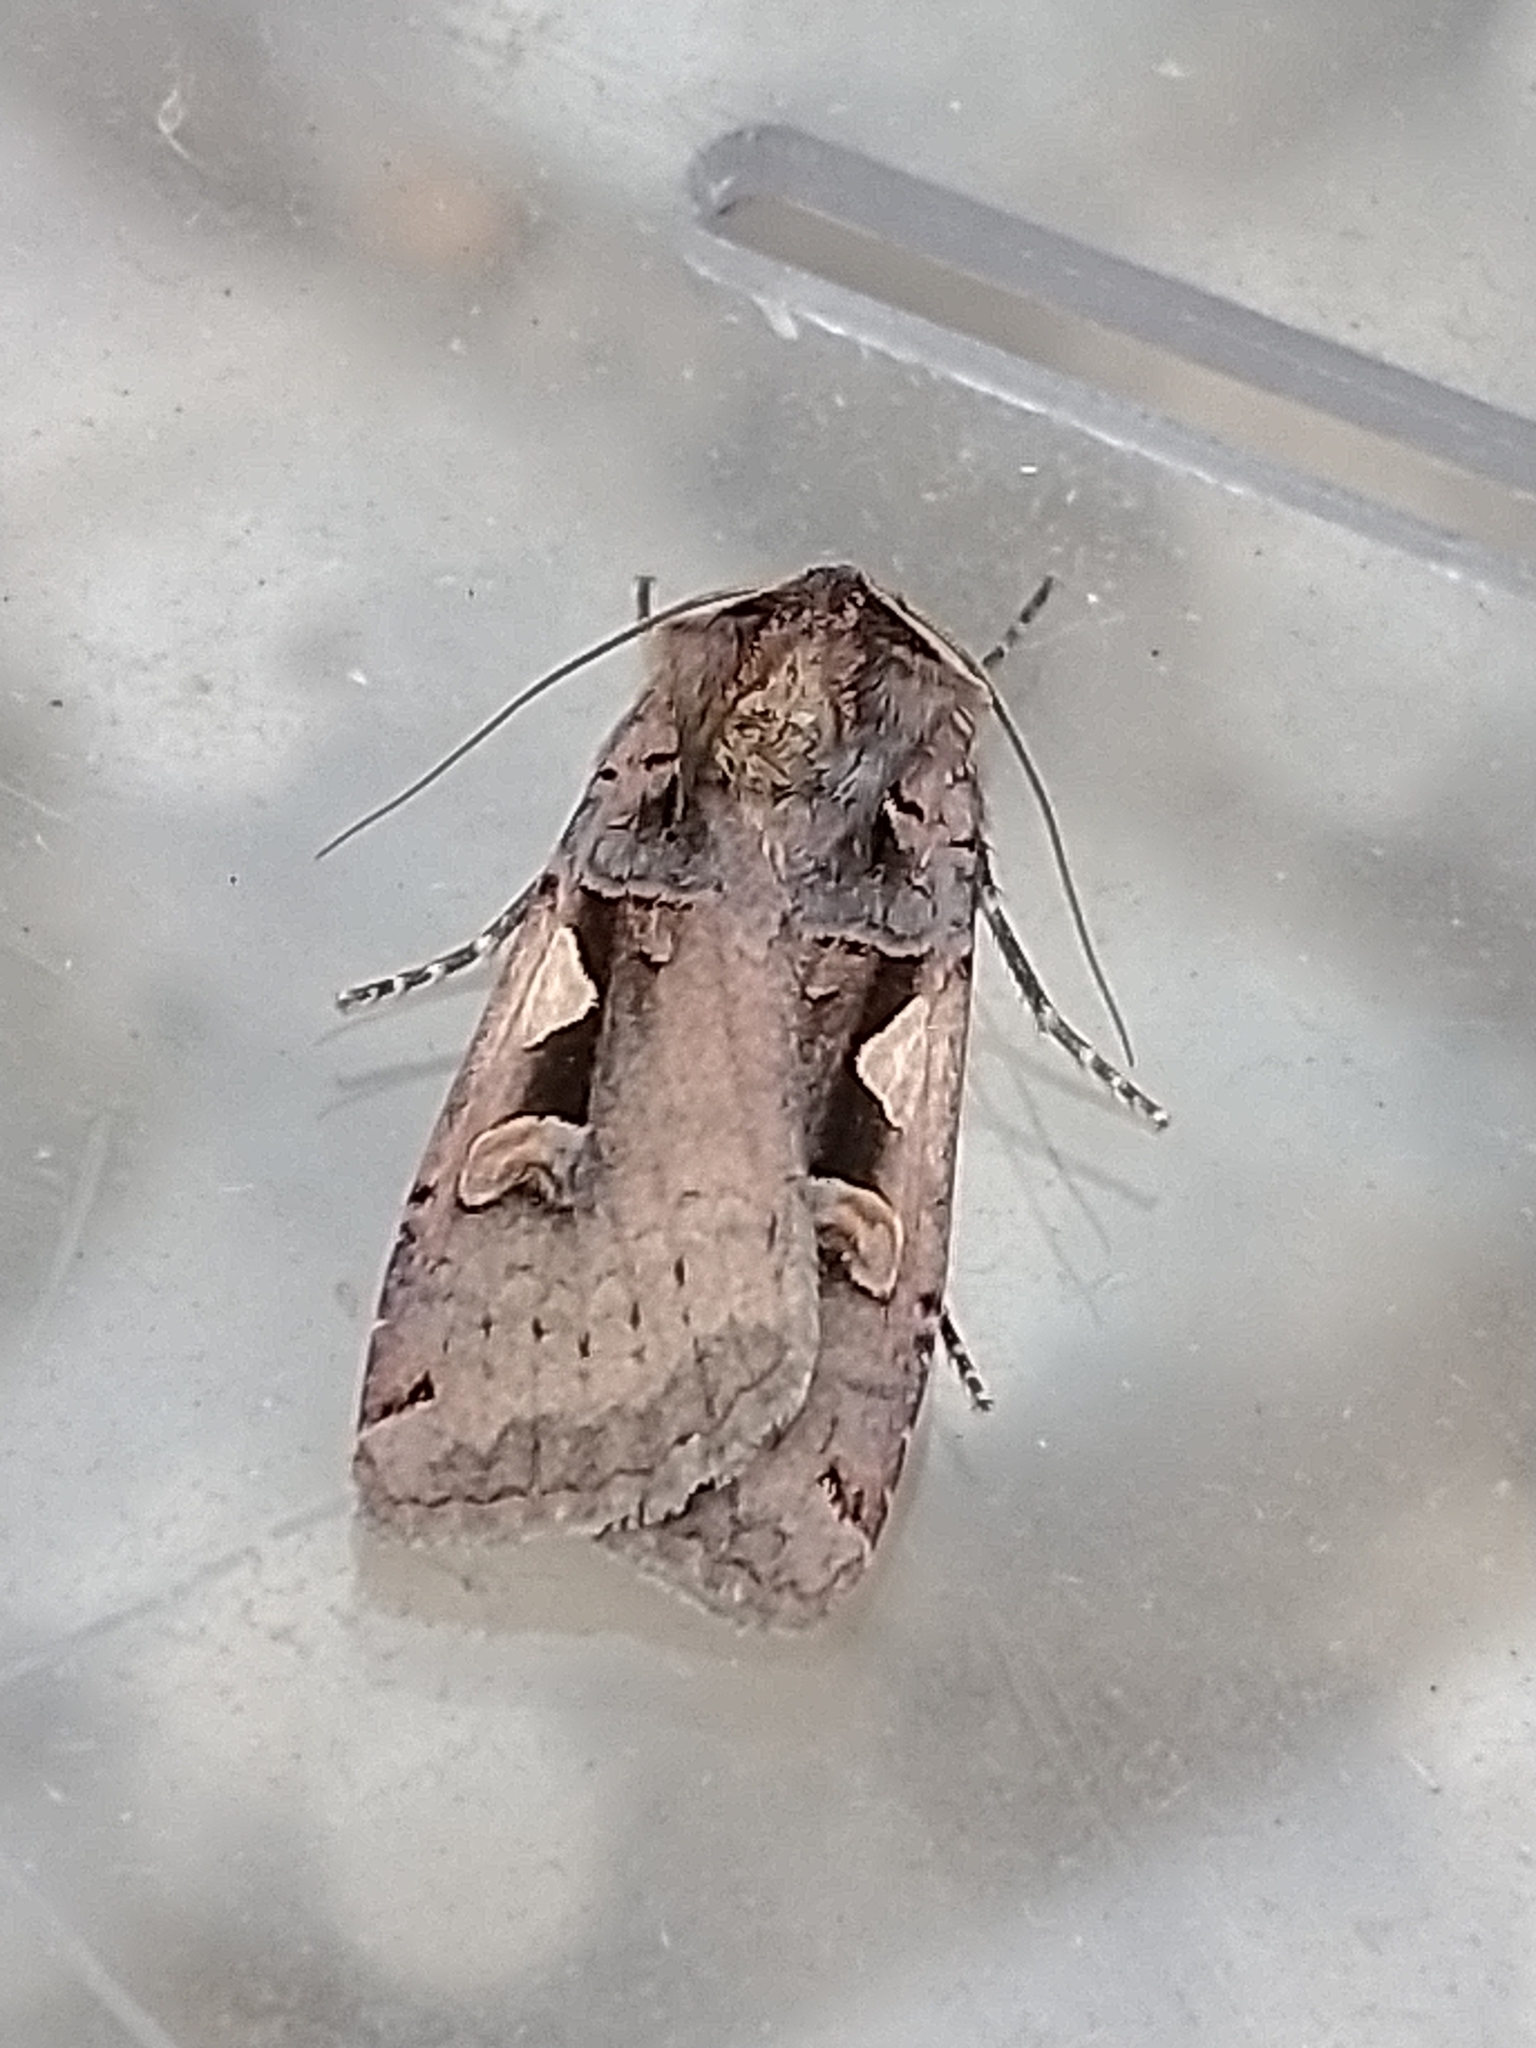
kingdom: Animalia
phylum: Arthropoda
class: Insecta
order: Lepidoptera
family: Noctuidae
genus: Xestia
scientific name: Xestia c-nigrum
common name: Setaceous hebrew character
